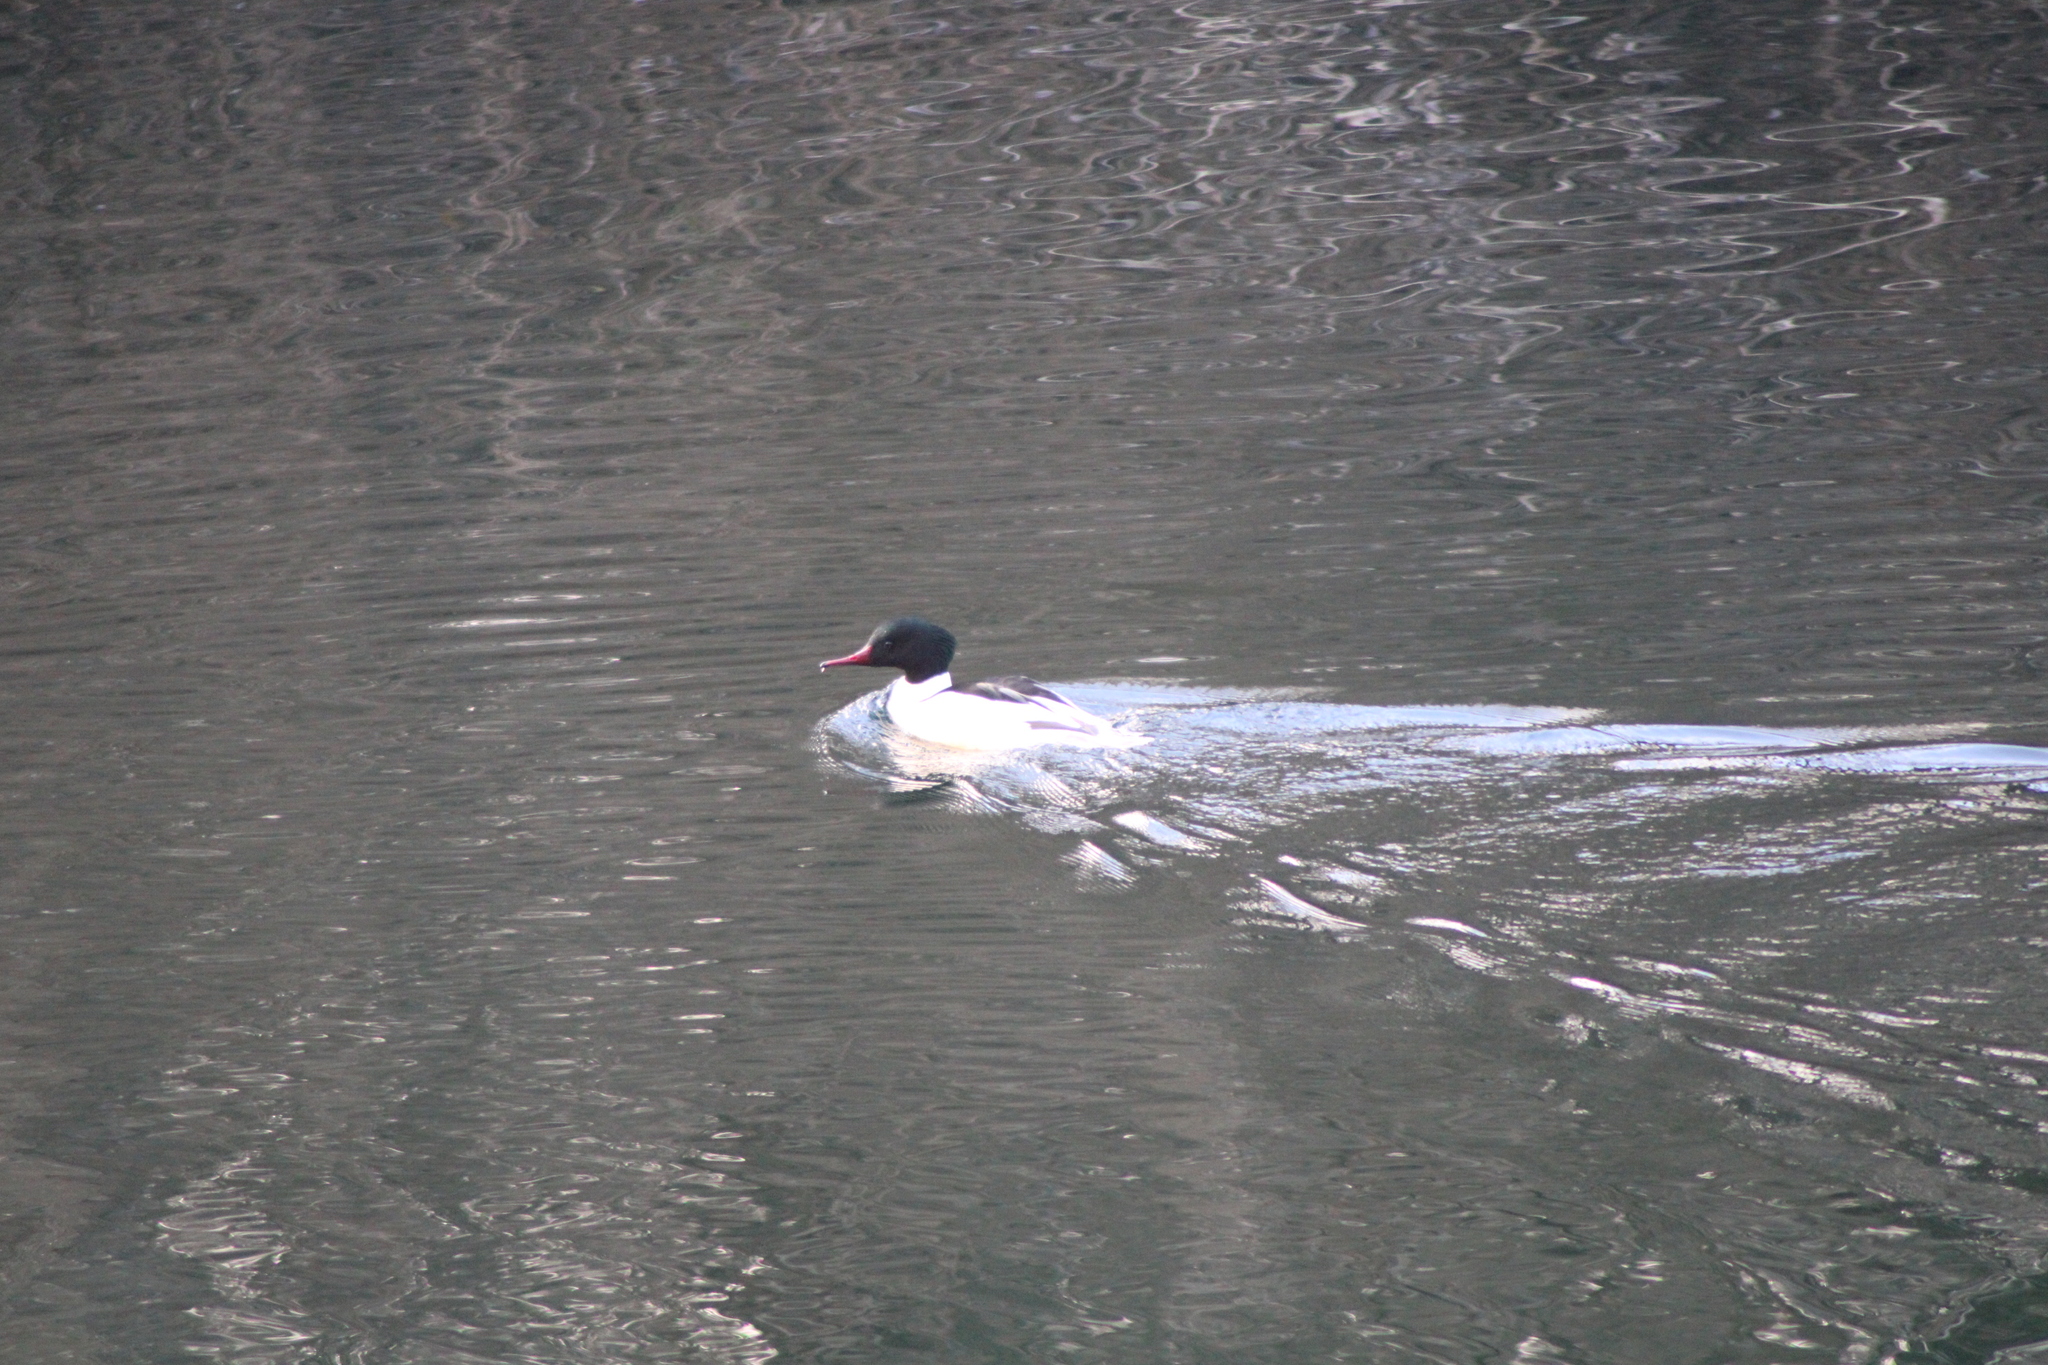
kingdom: Animalia
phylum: Chordata
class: Aves
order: Anseriformes
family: Anatidae
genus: Mergus
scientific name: Mergus merganser
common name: Common merganser
